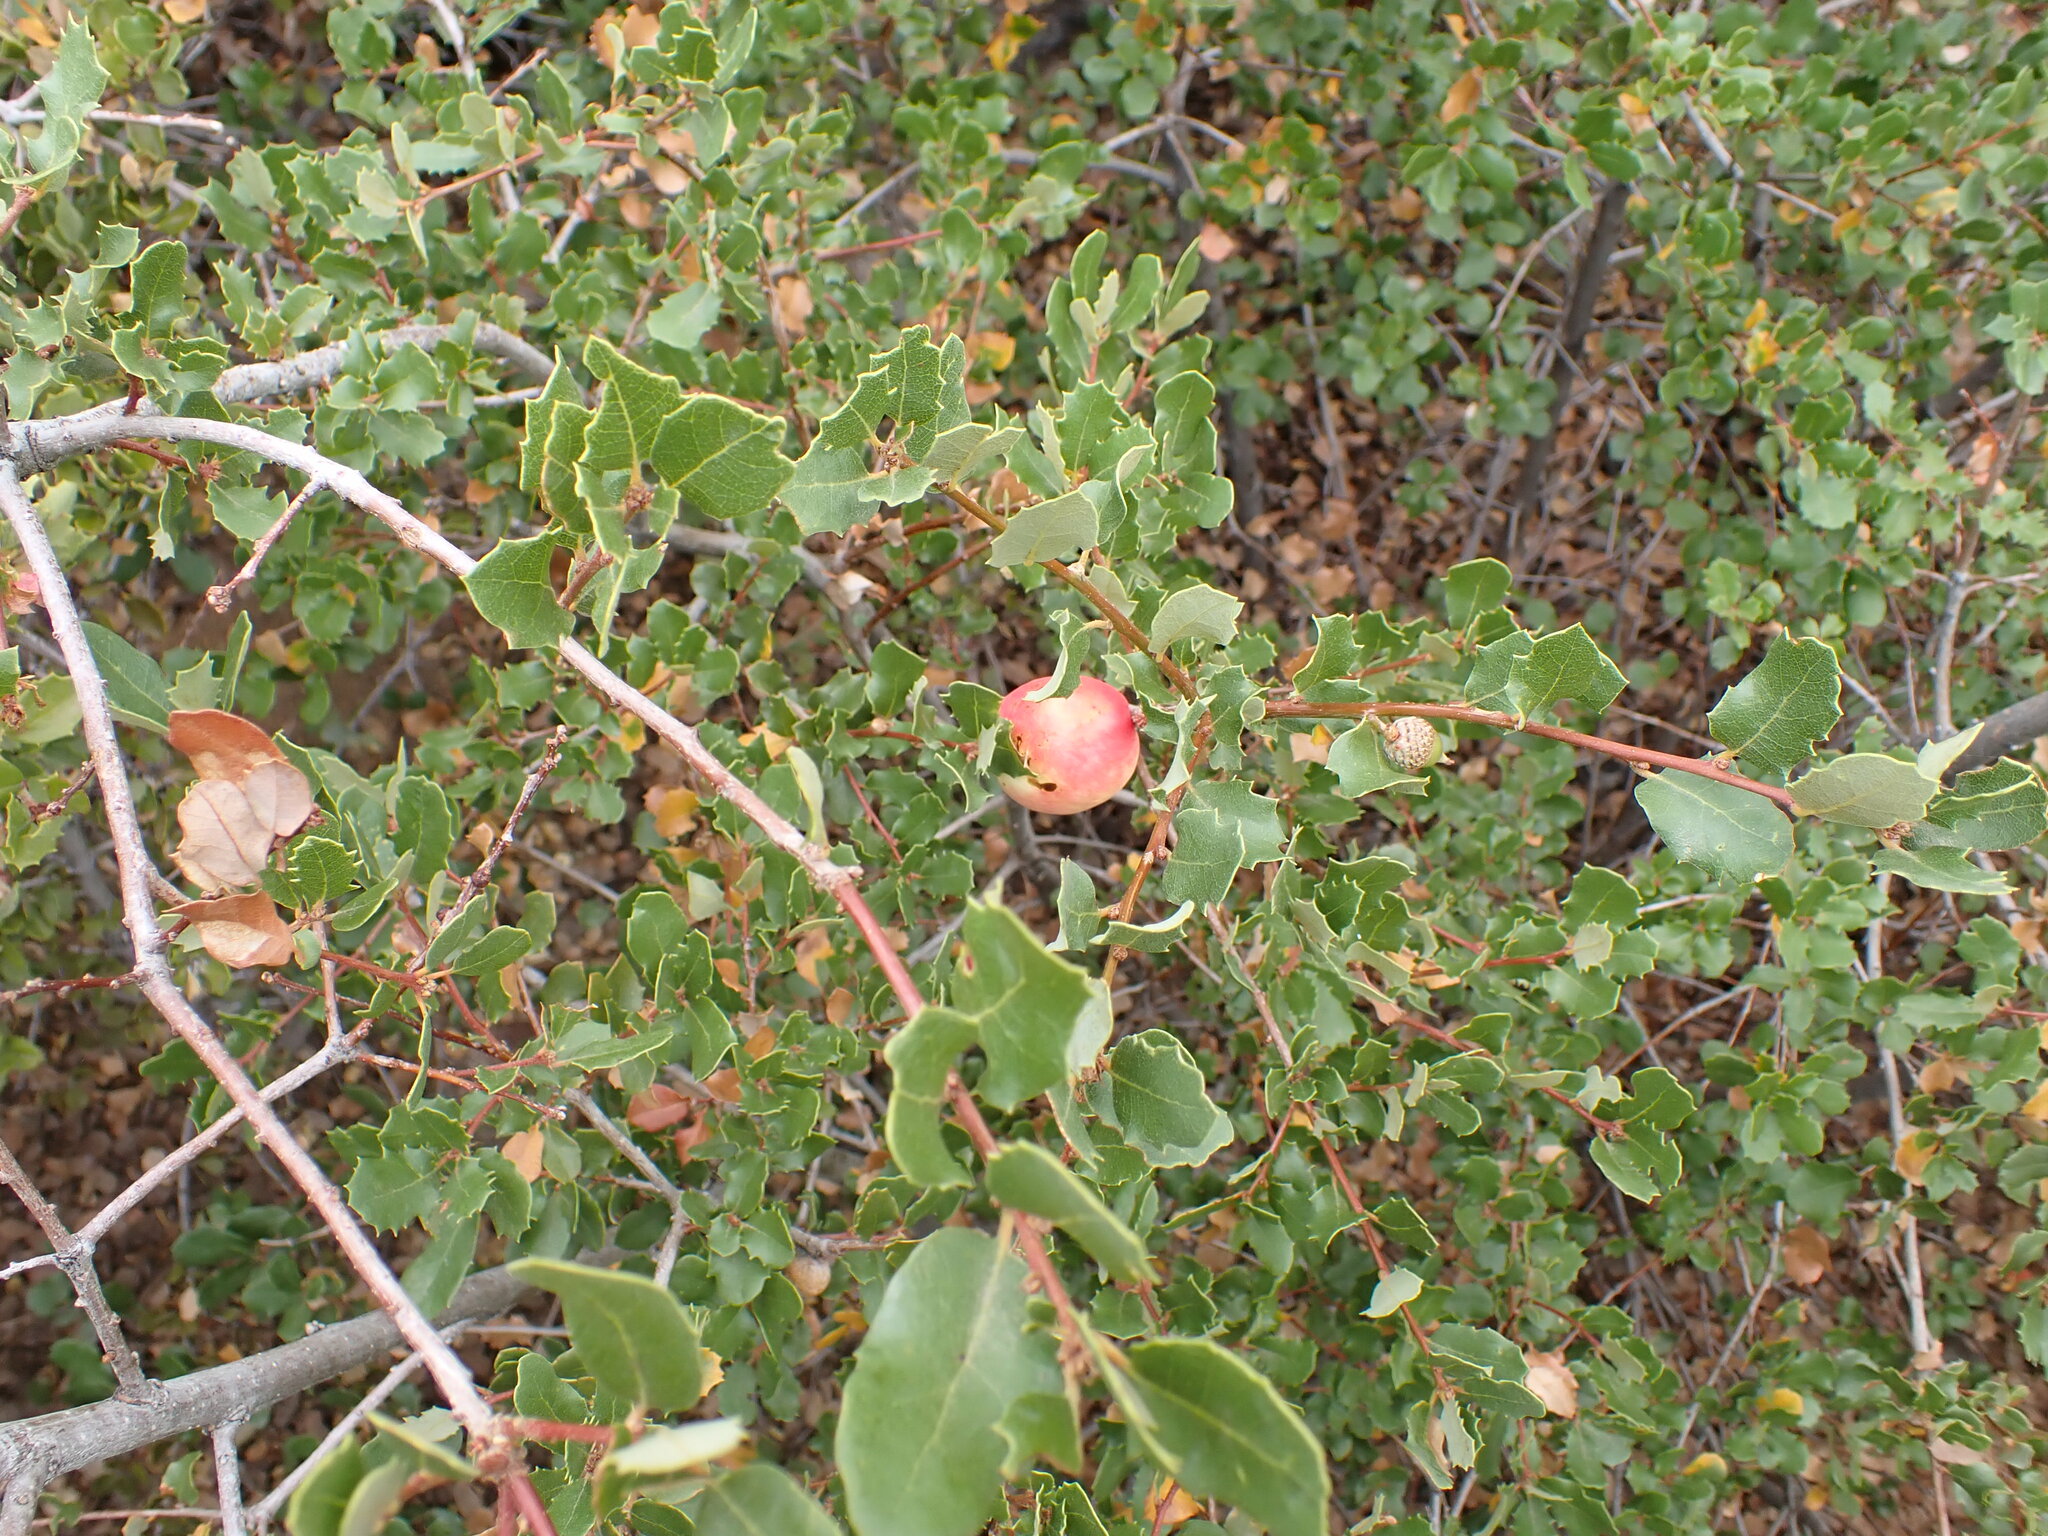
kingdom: Animalia
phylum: Arthropoda
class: Insecta
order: Hymenoptera
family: Cynipidae
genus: Andricus
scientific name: Andricus quercuscalifornicus
